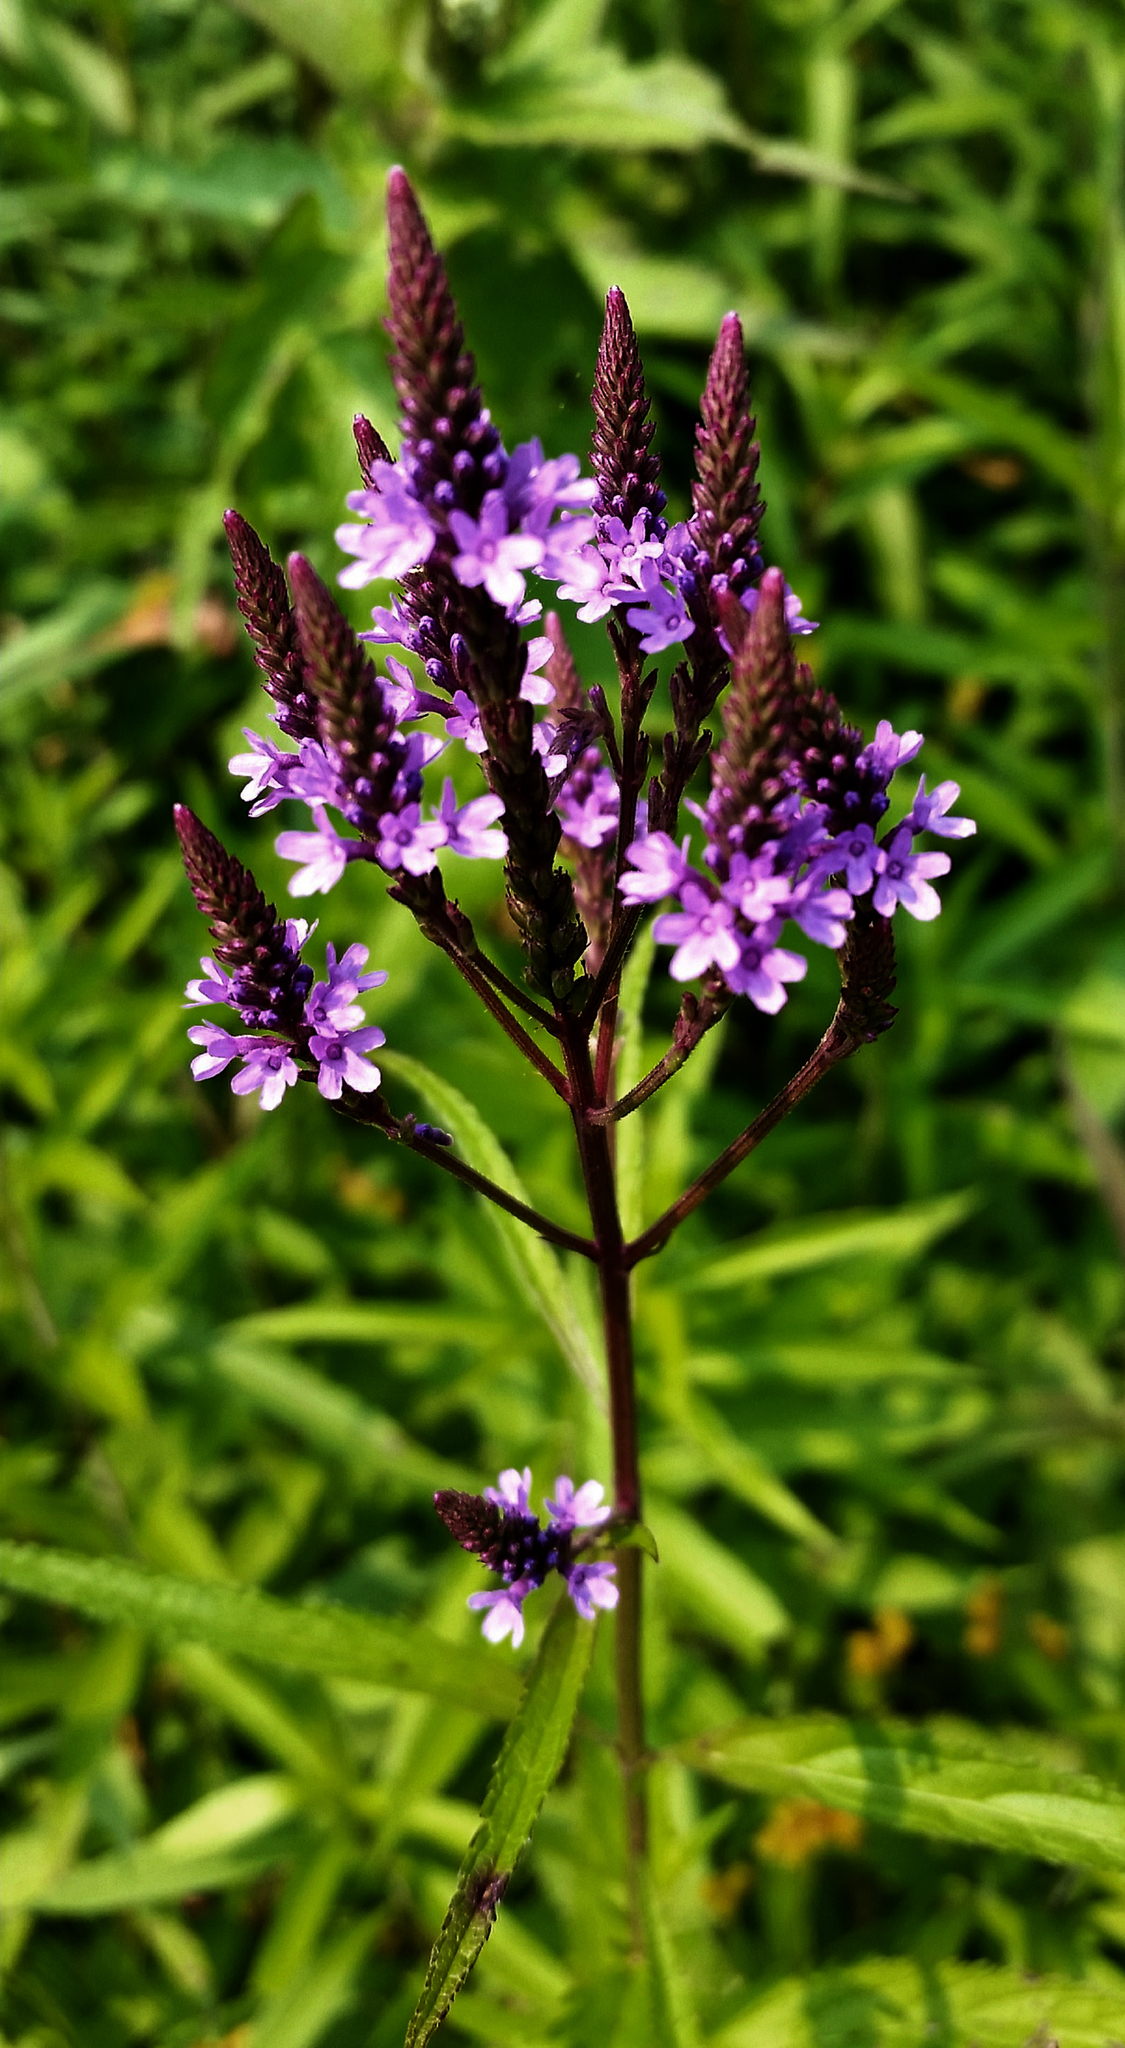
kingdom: Plantae
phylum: Tracheophyta
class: Magnoliopsida
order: Lamiales
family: Verbenaceae
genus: Verbena
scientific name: Verbena hastata
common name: American blue vervain
